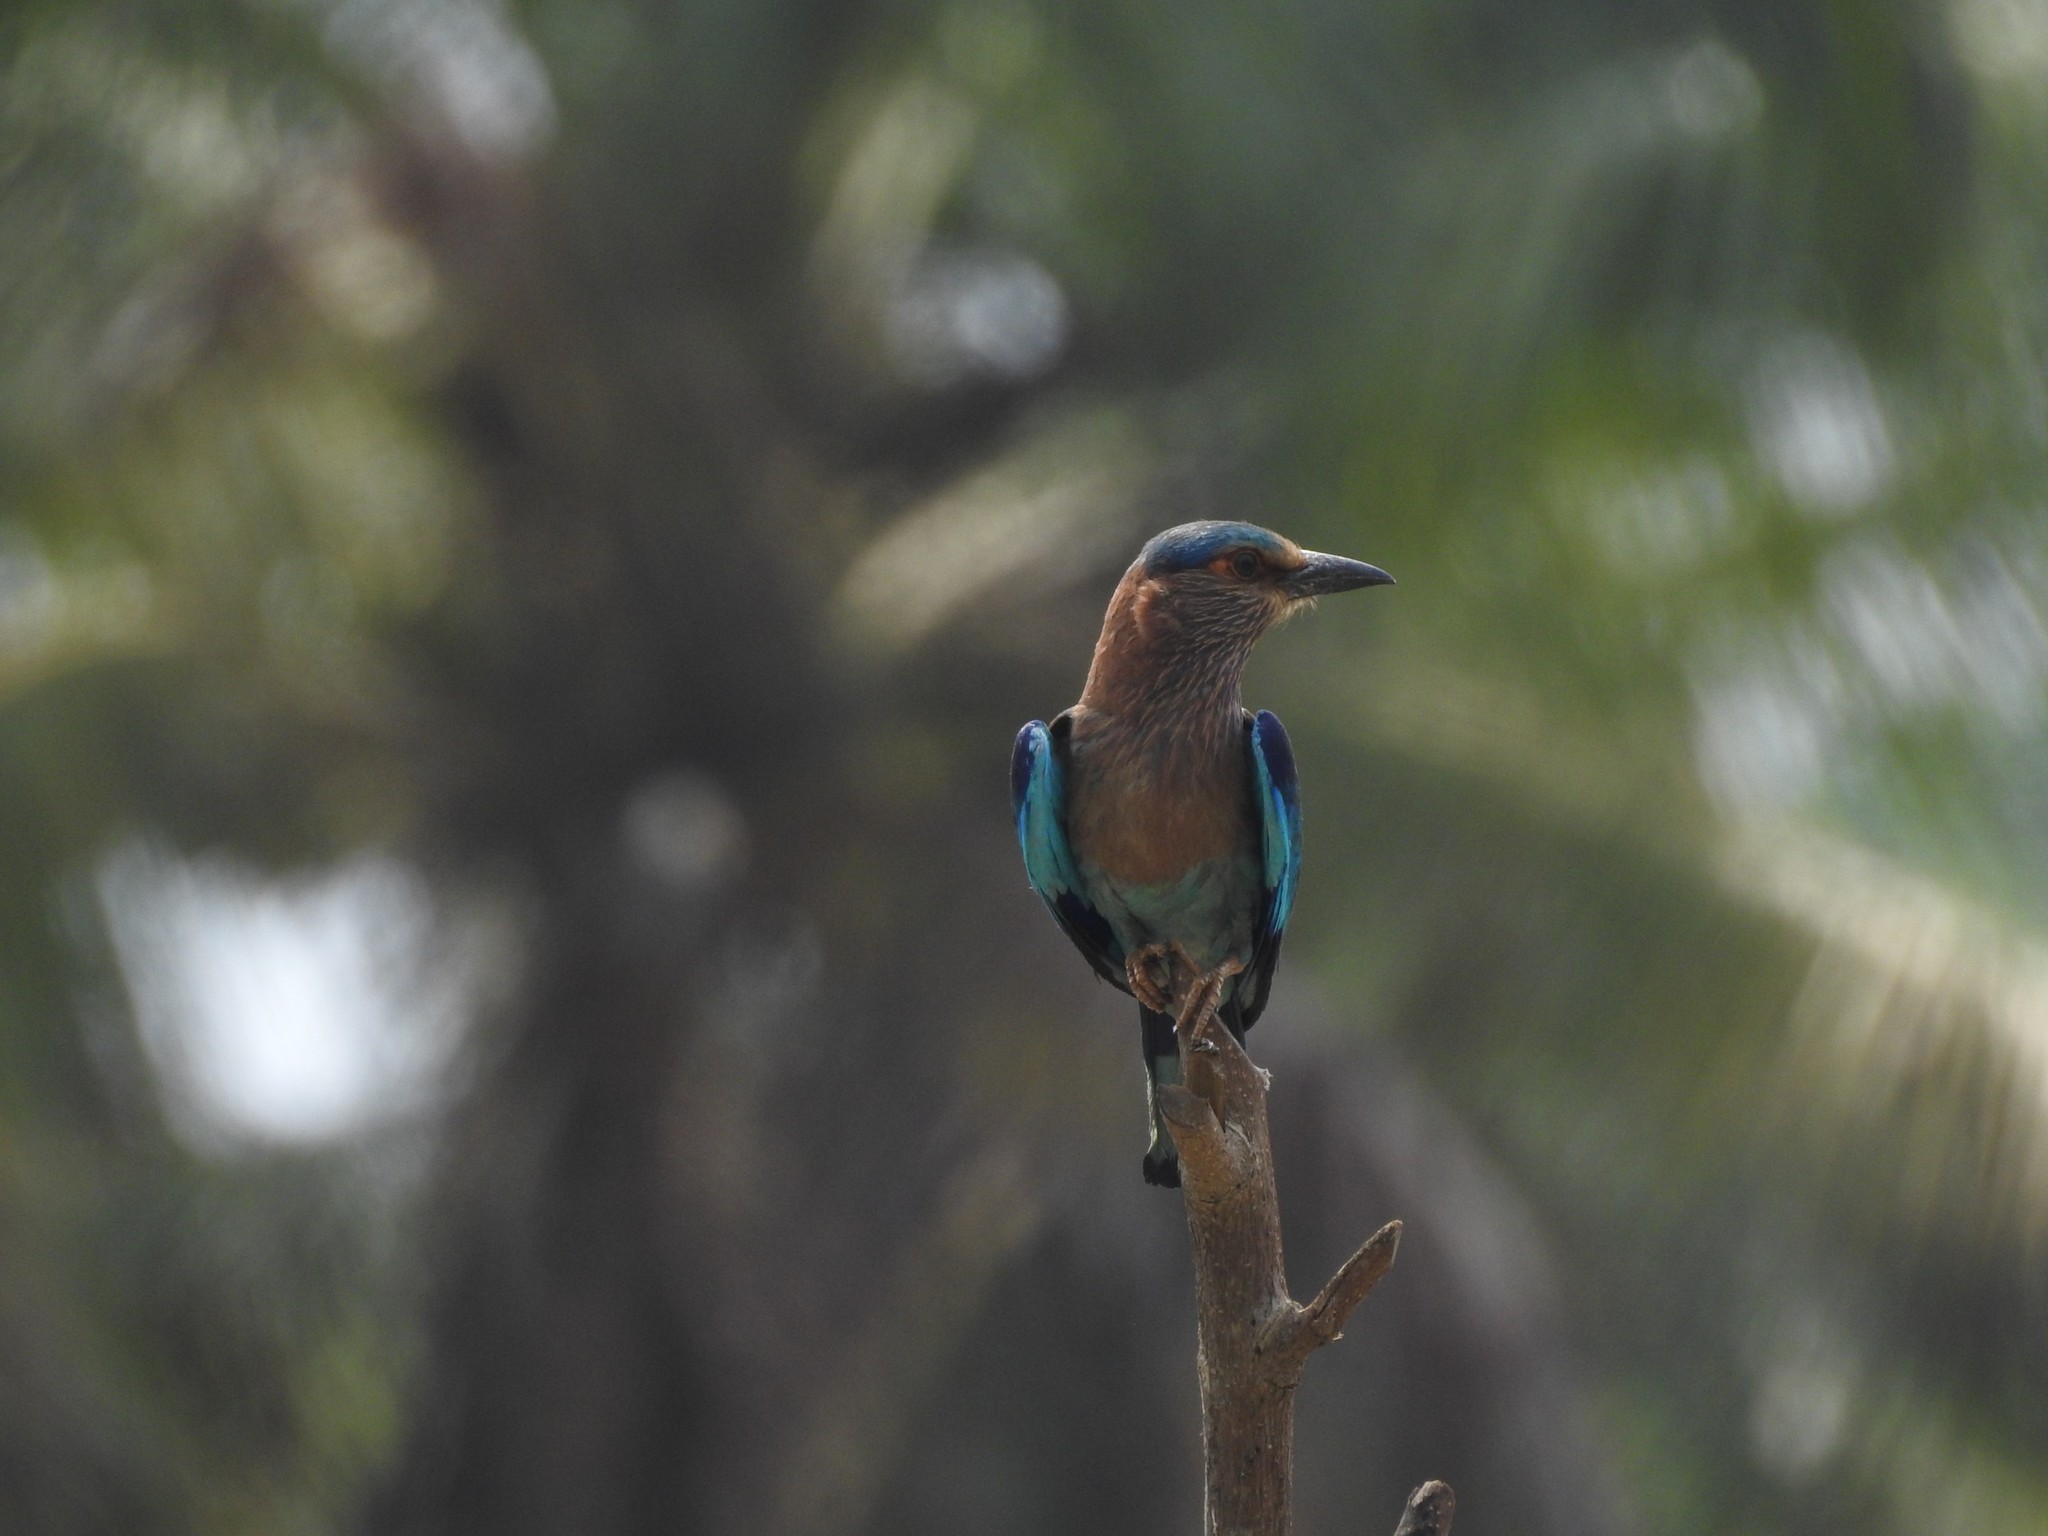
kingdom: Animalia
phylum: Chordata
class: Aves
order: Coraciiformes
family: Coraciidae
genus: Coracias
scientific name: Coracias benghalensis
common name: Indian roller
